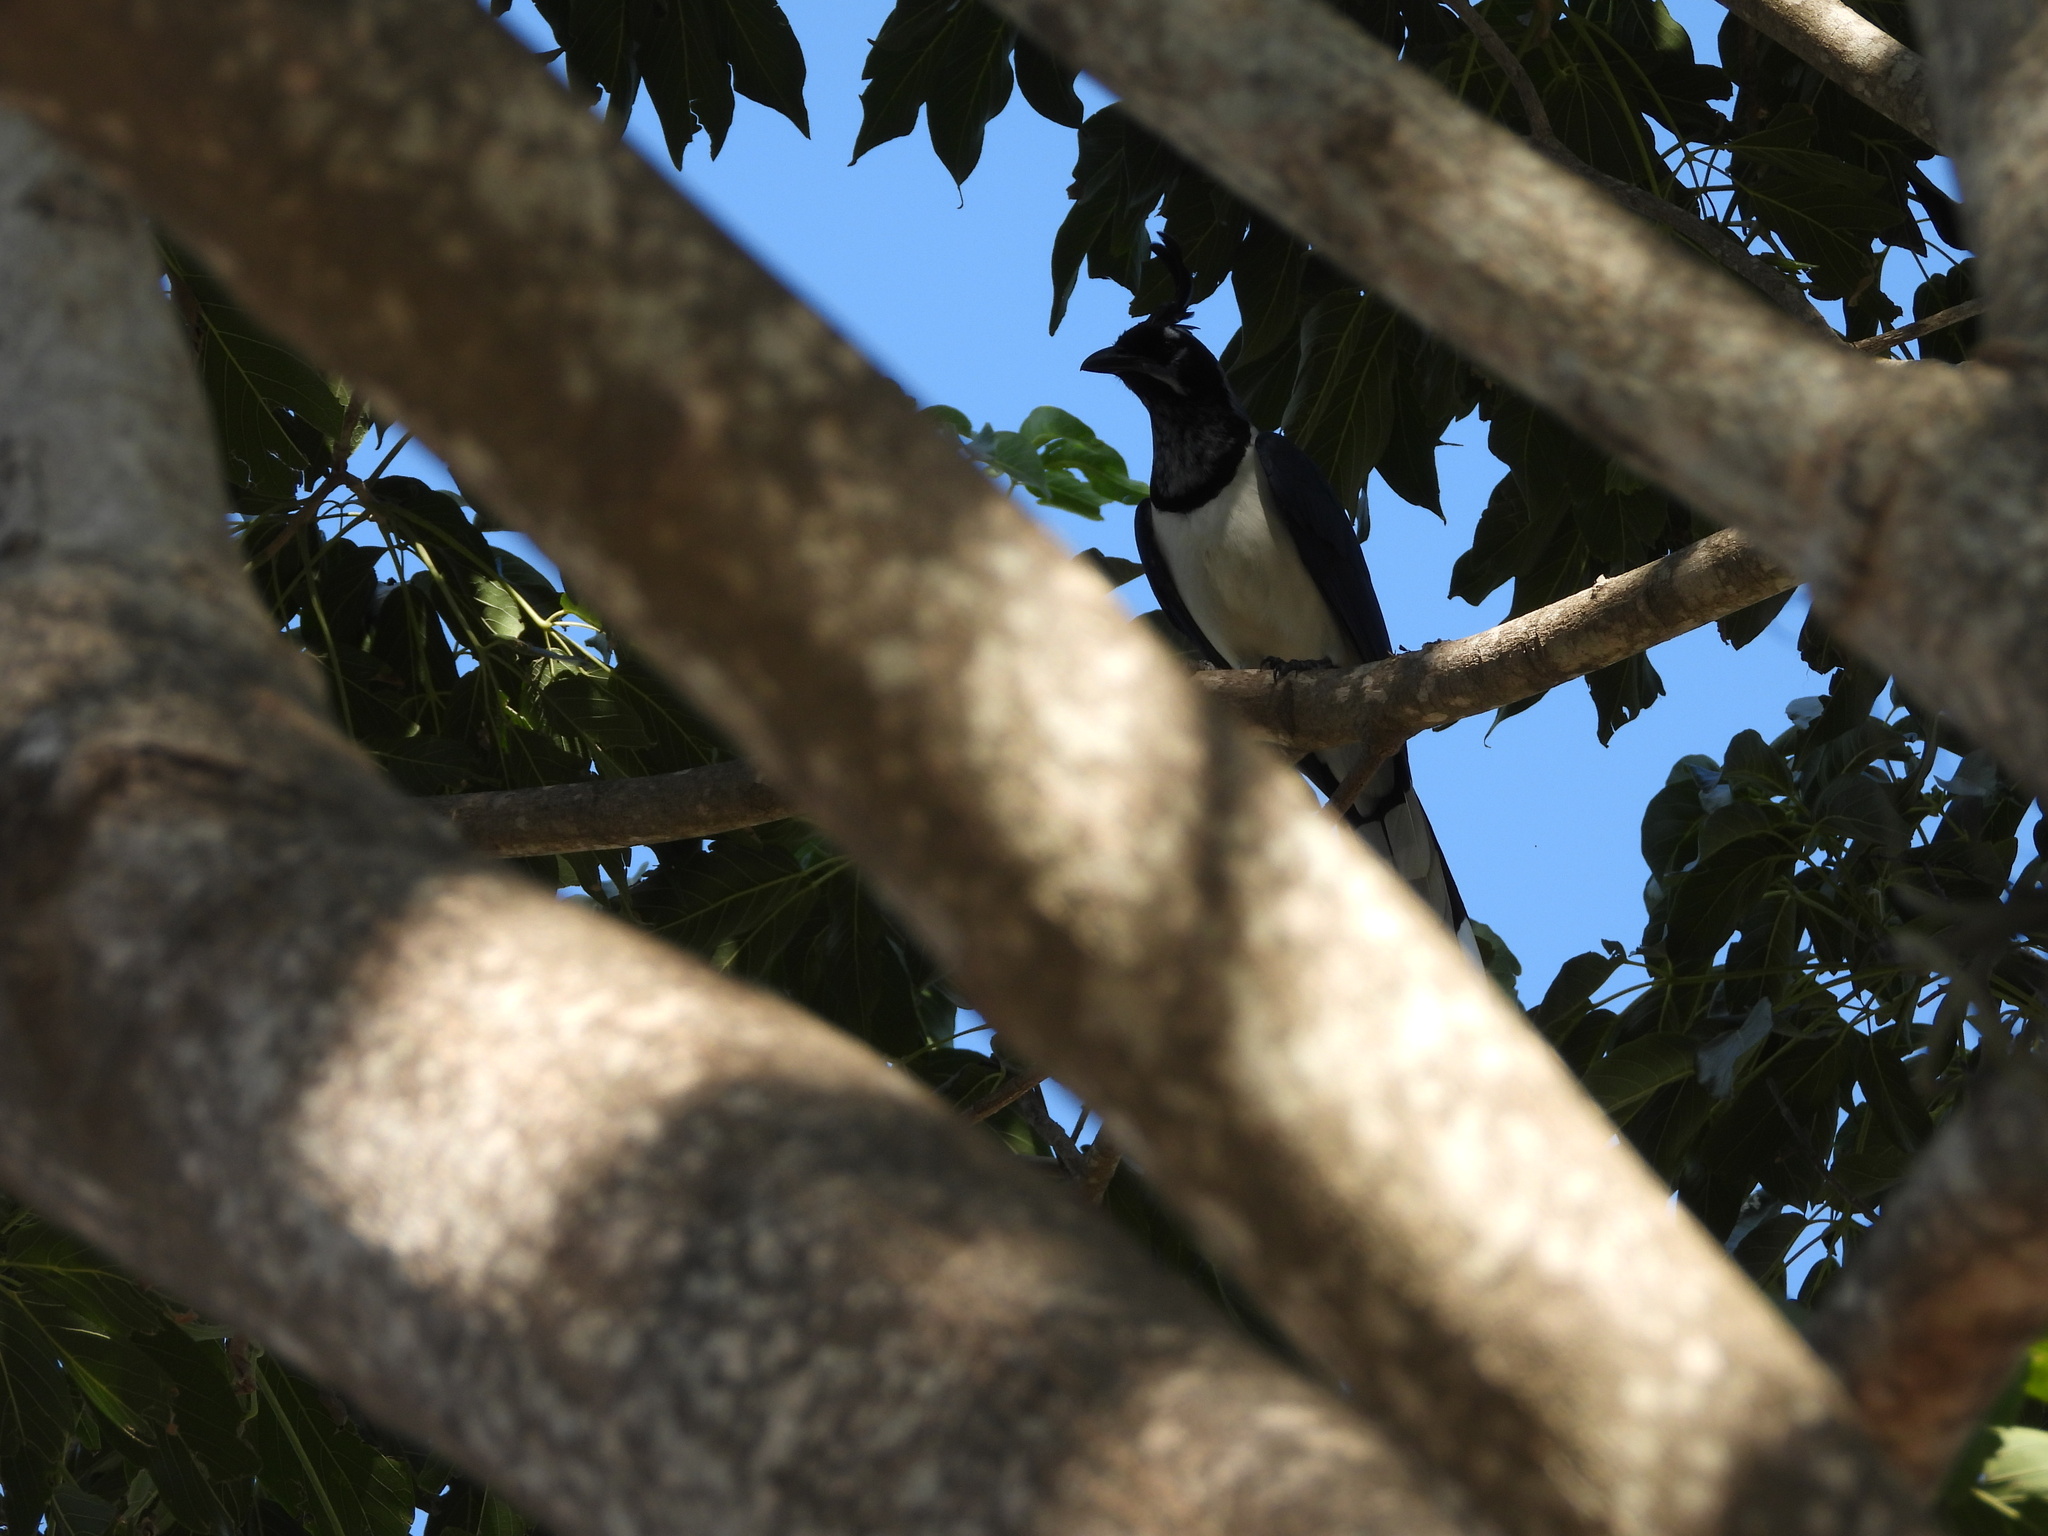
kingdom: Animalia
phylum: Chordata
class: Aves
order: Passeriformes
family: Corvidae
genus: Calocitta
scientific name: Calocitta colliei
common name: Black-throated magpie-jay
